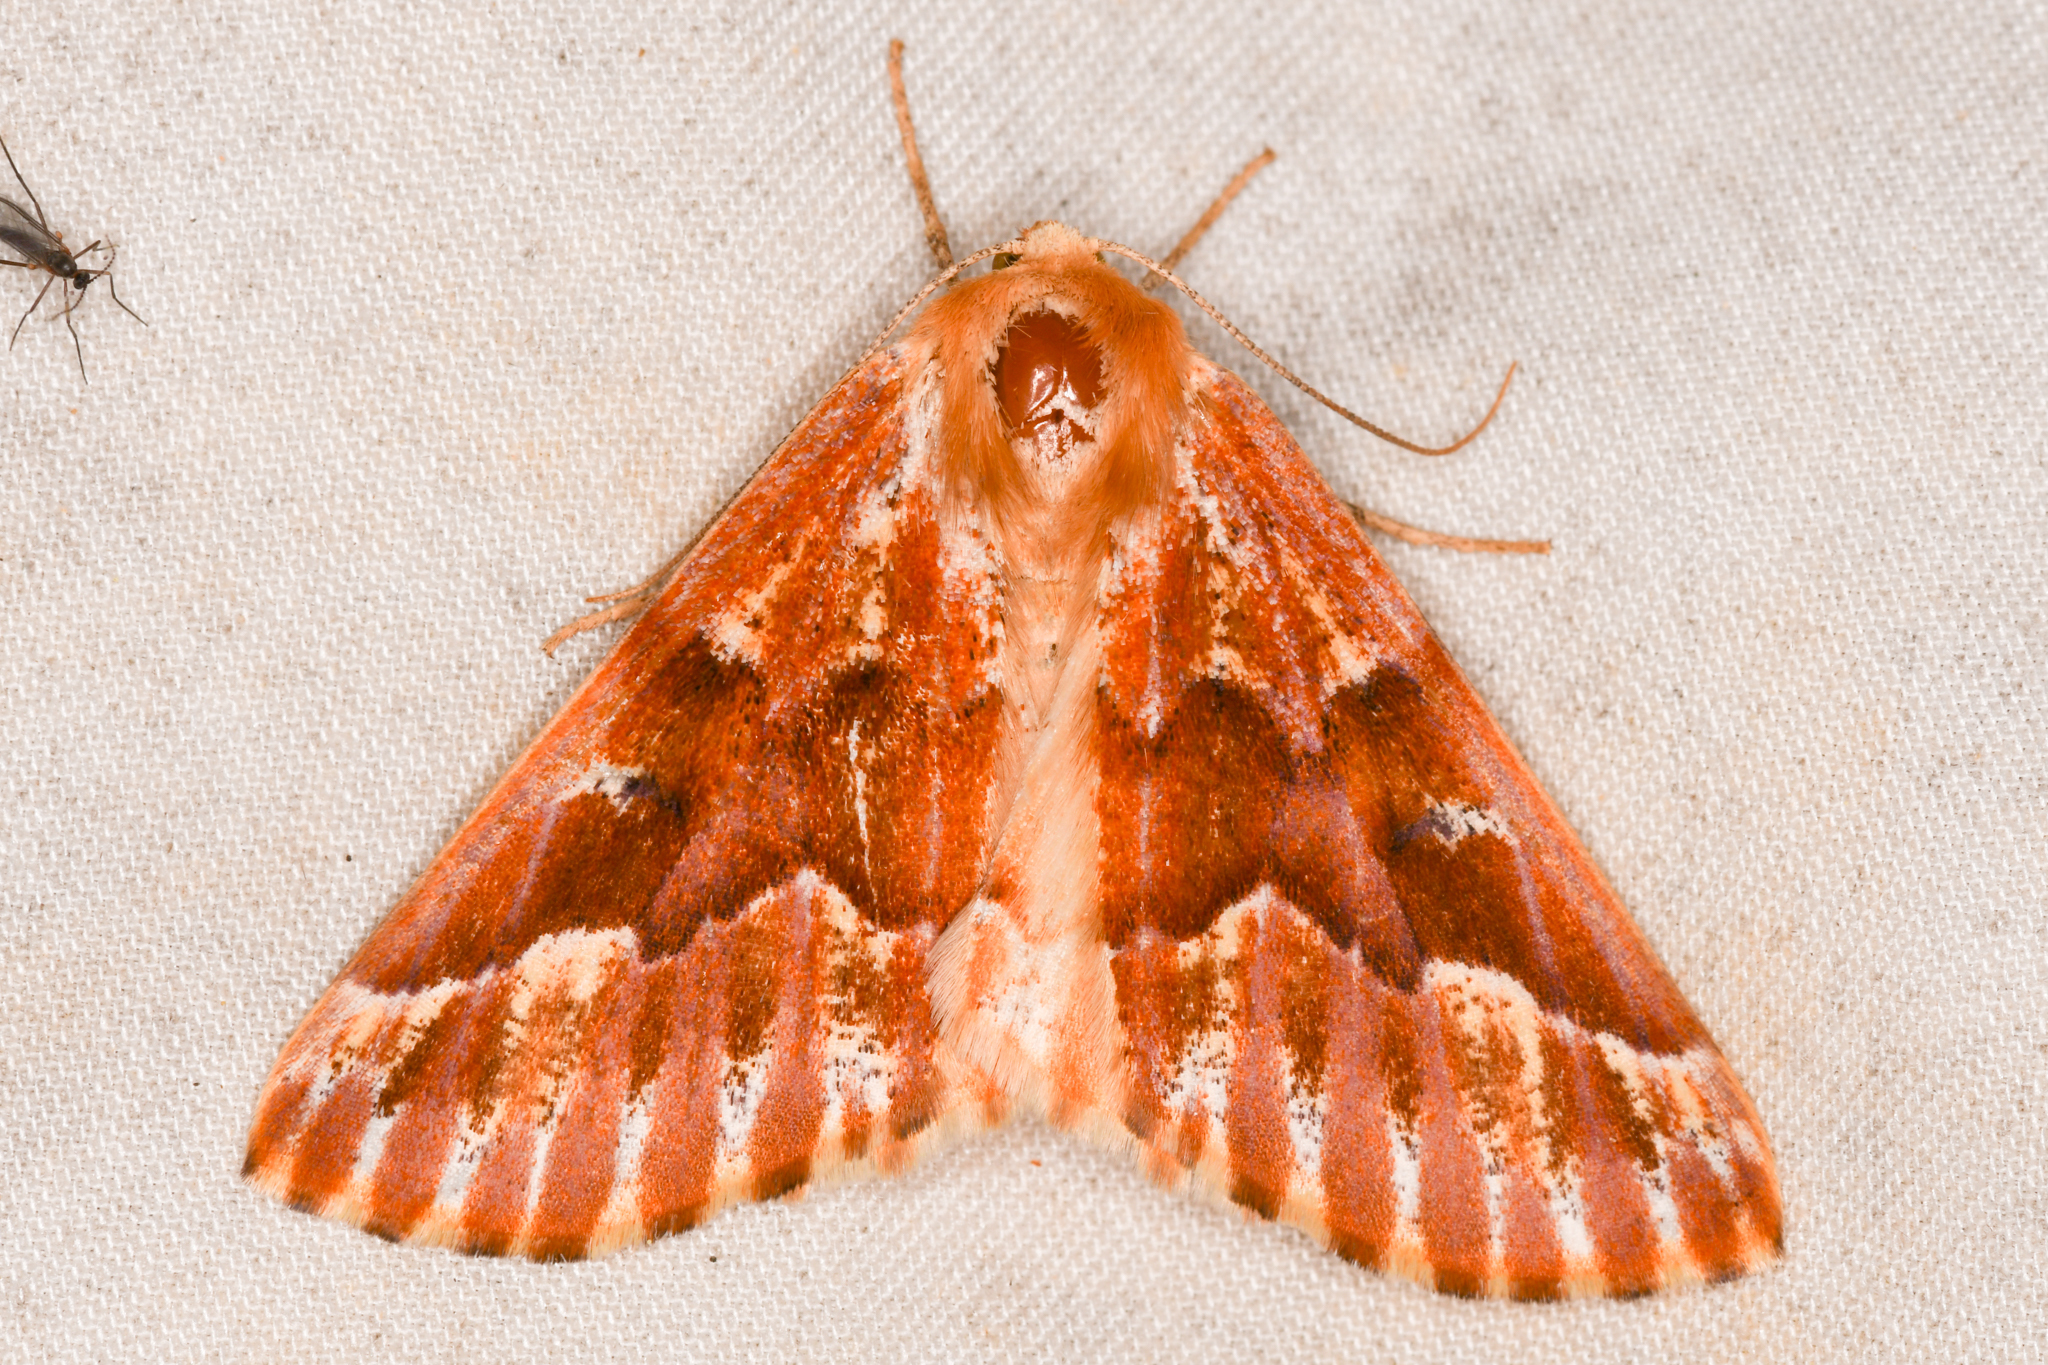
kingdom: Animalia
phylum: Arthropoda
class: Insecta
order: Lepidoptera
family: Geometridae
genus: Caripeta
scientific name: Caripeta aequaliaria
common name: Red girdle moth
